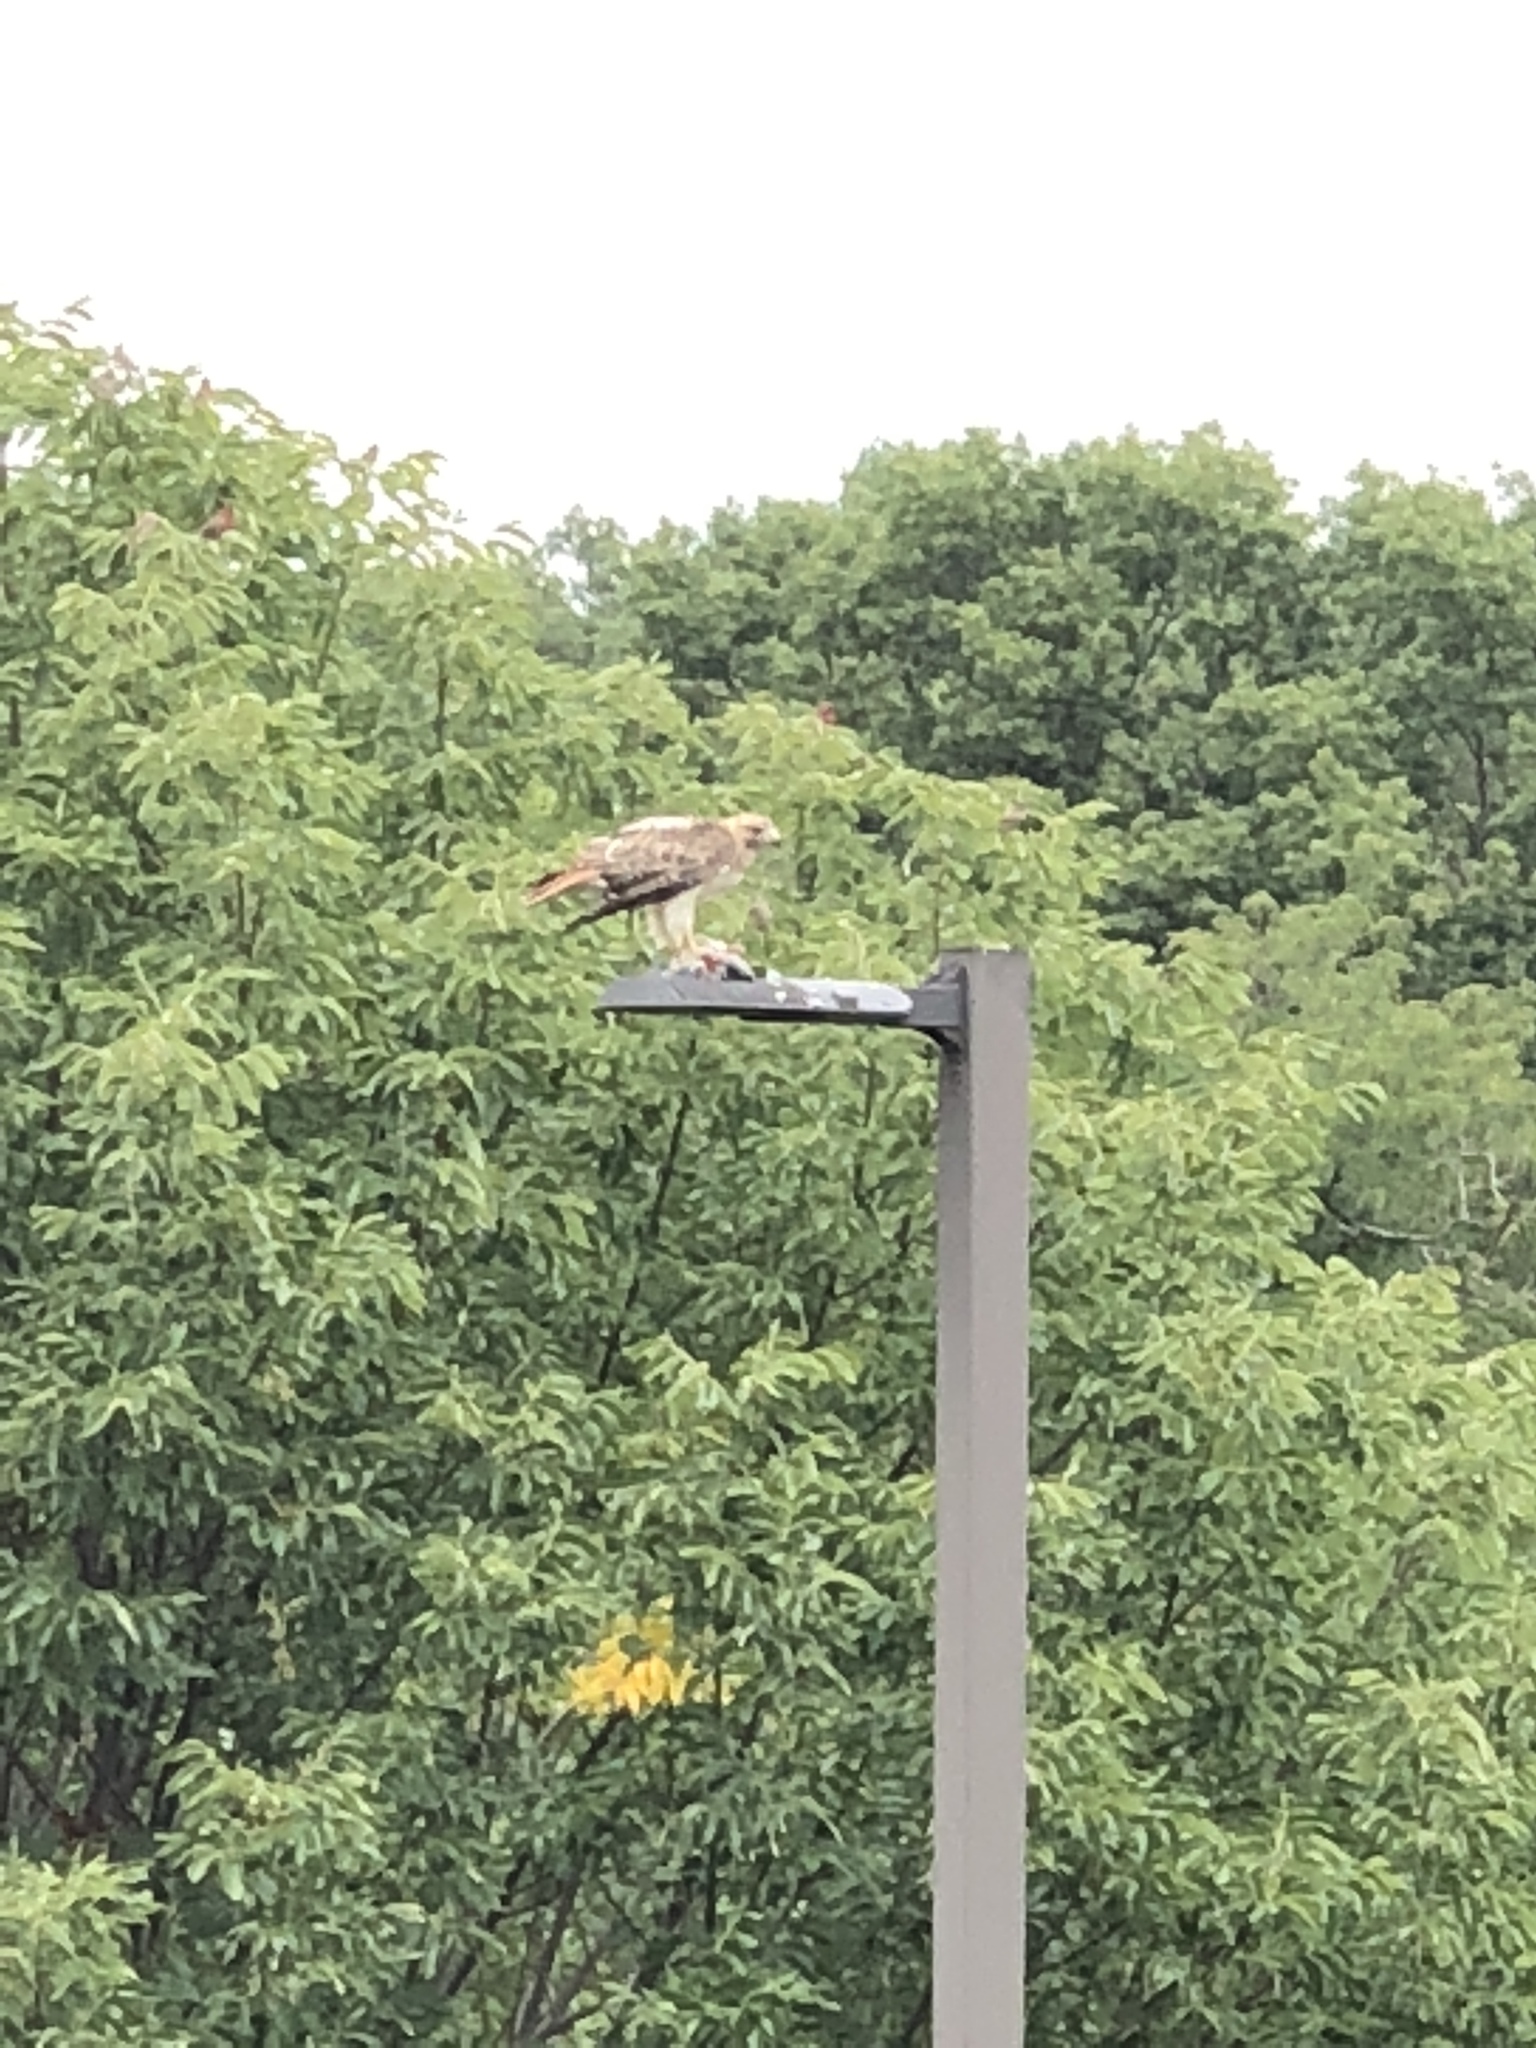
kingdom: Animalia
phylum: Chordata
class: Aves
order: Accipitriformes
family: Accipitridae
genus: Buteo
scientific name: Buteo jamaicensis
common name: Red-tailed hawk
